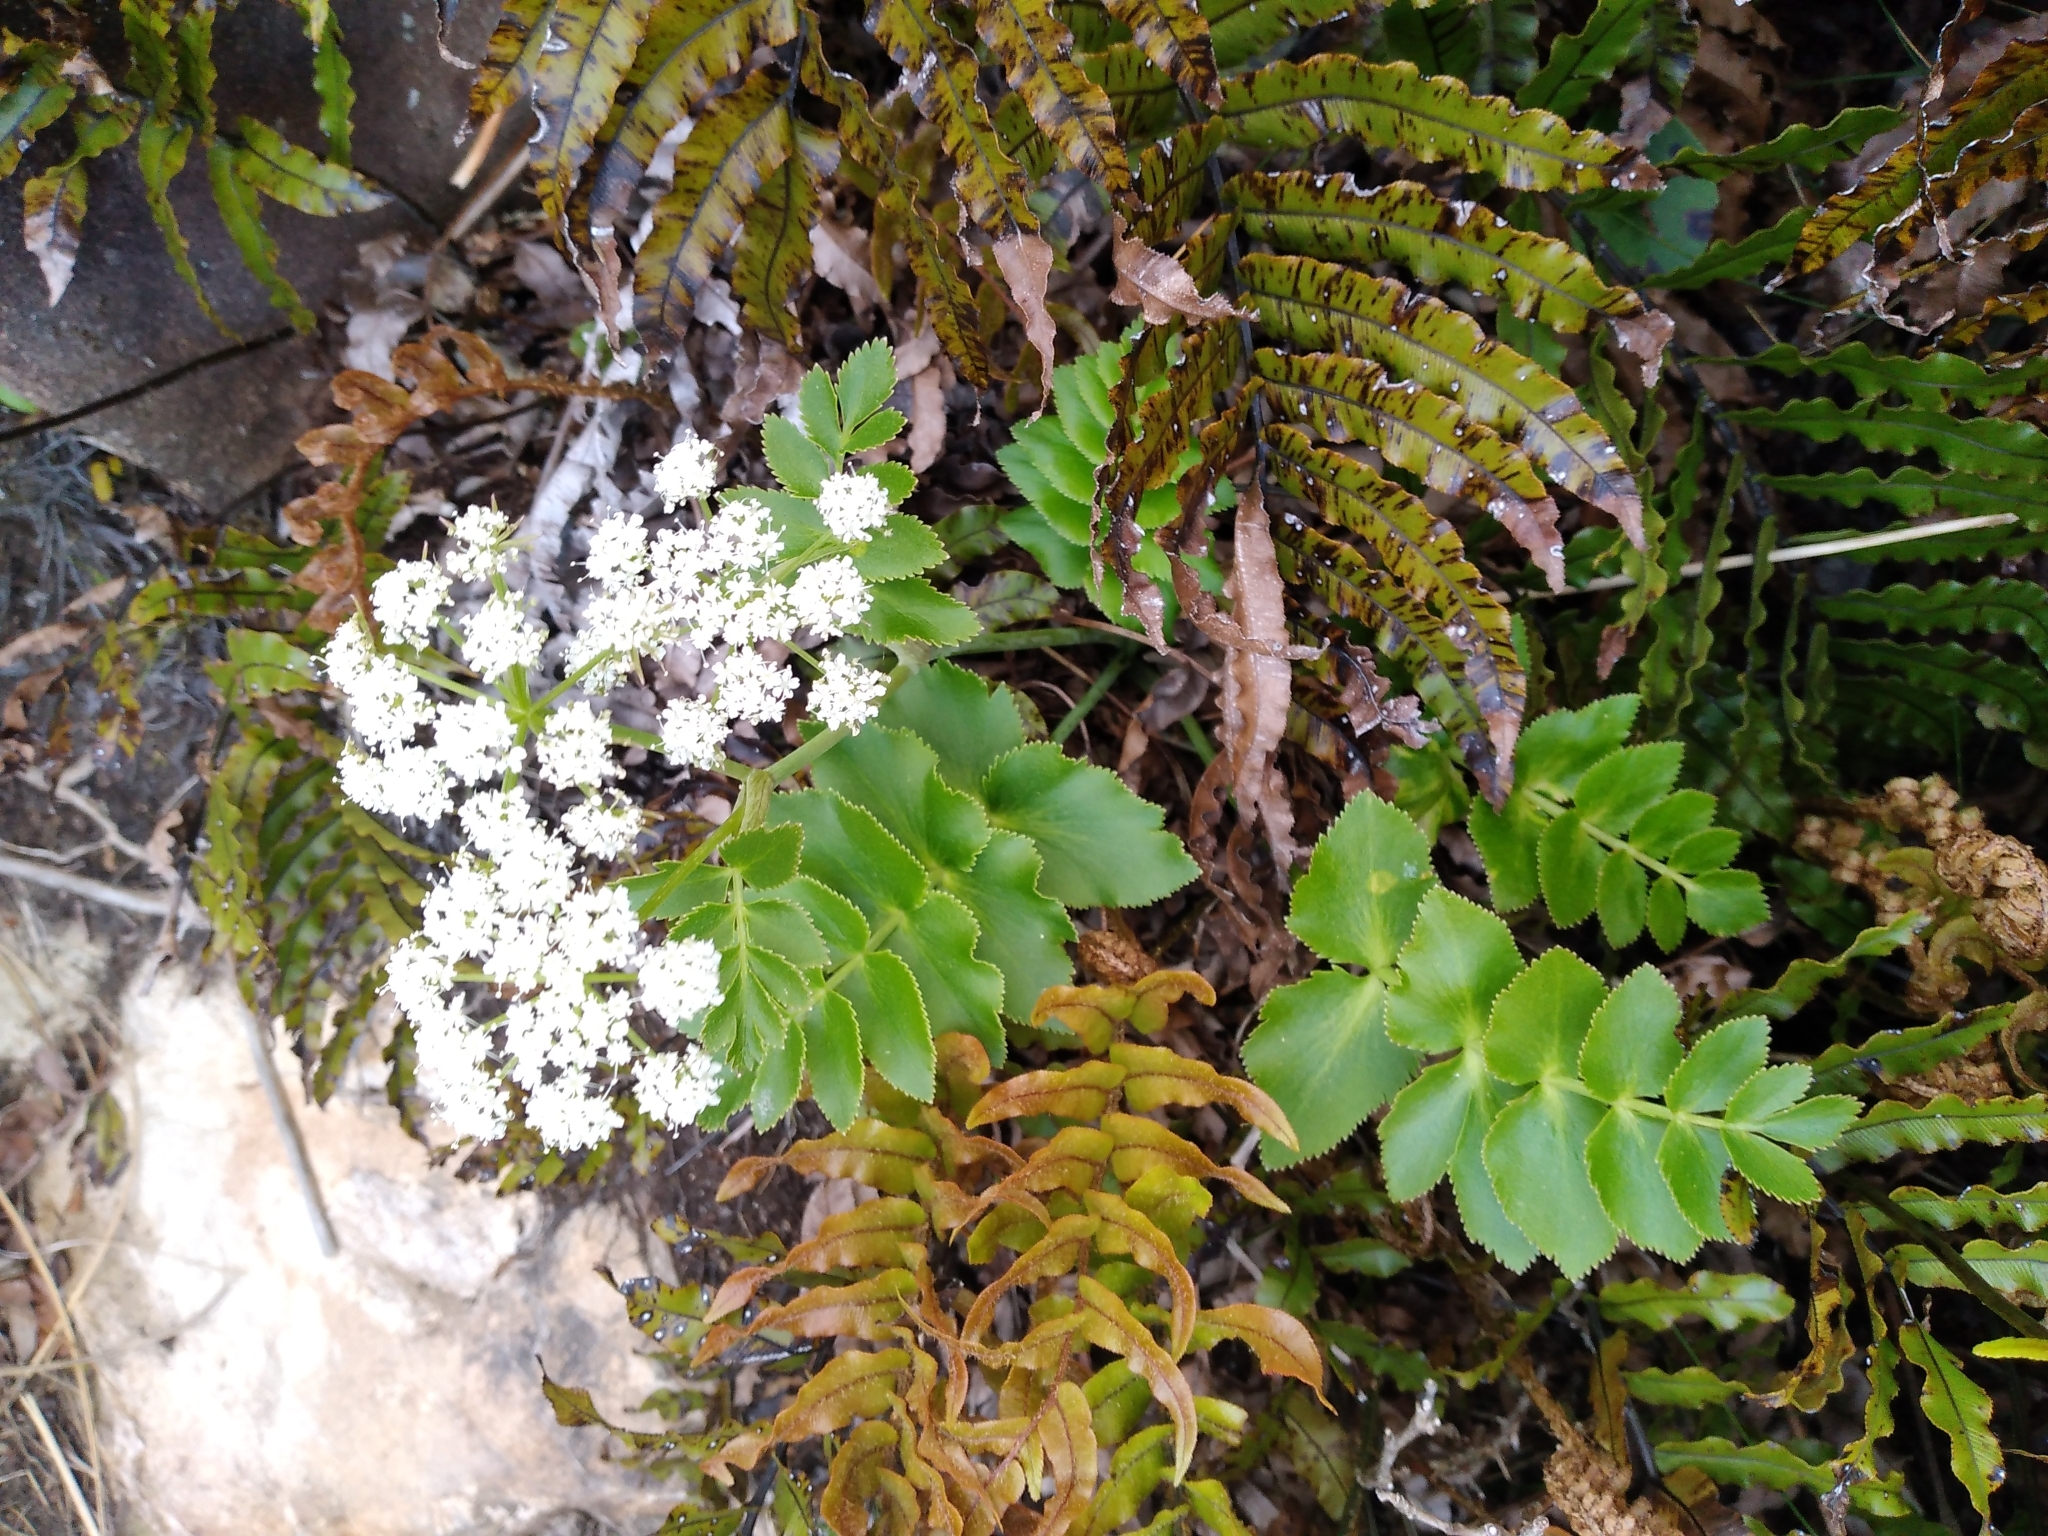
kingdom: Plantae
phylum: Tracheophyta
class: Magnoliopsida
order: Apiales
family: Apiaceae
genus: Gingidia
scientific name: Gingidia montana
